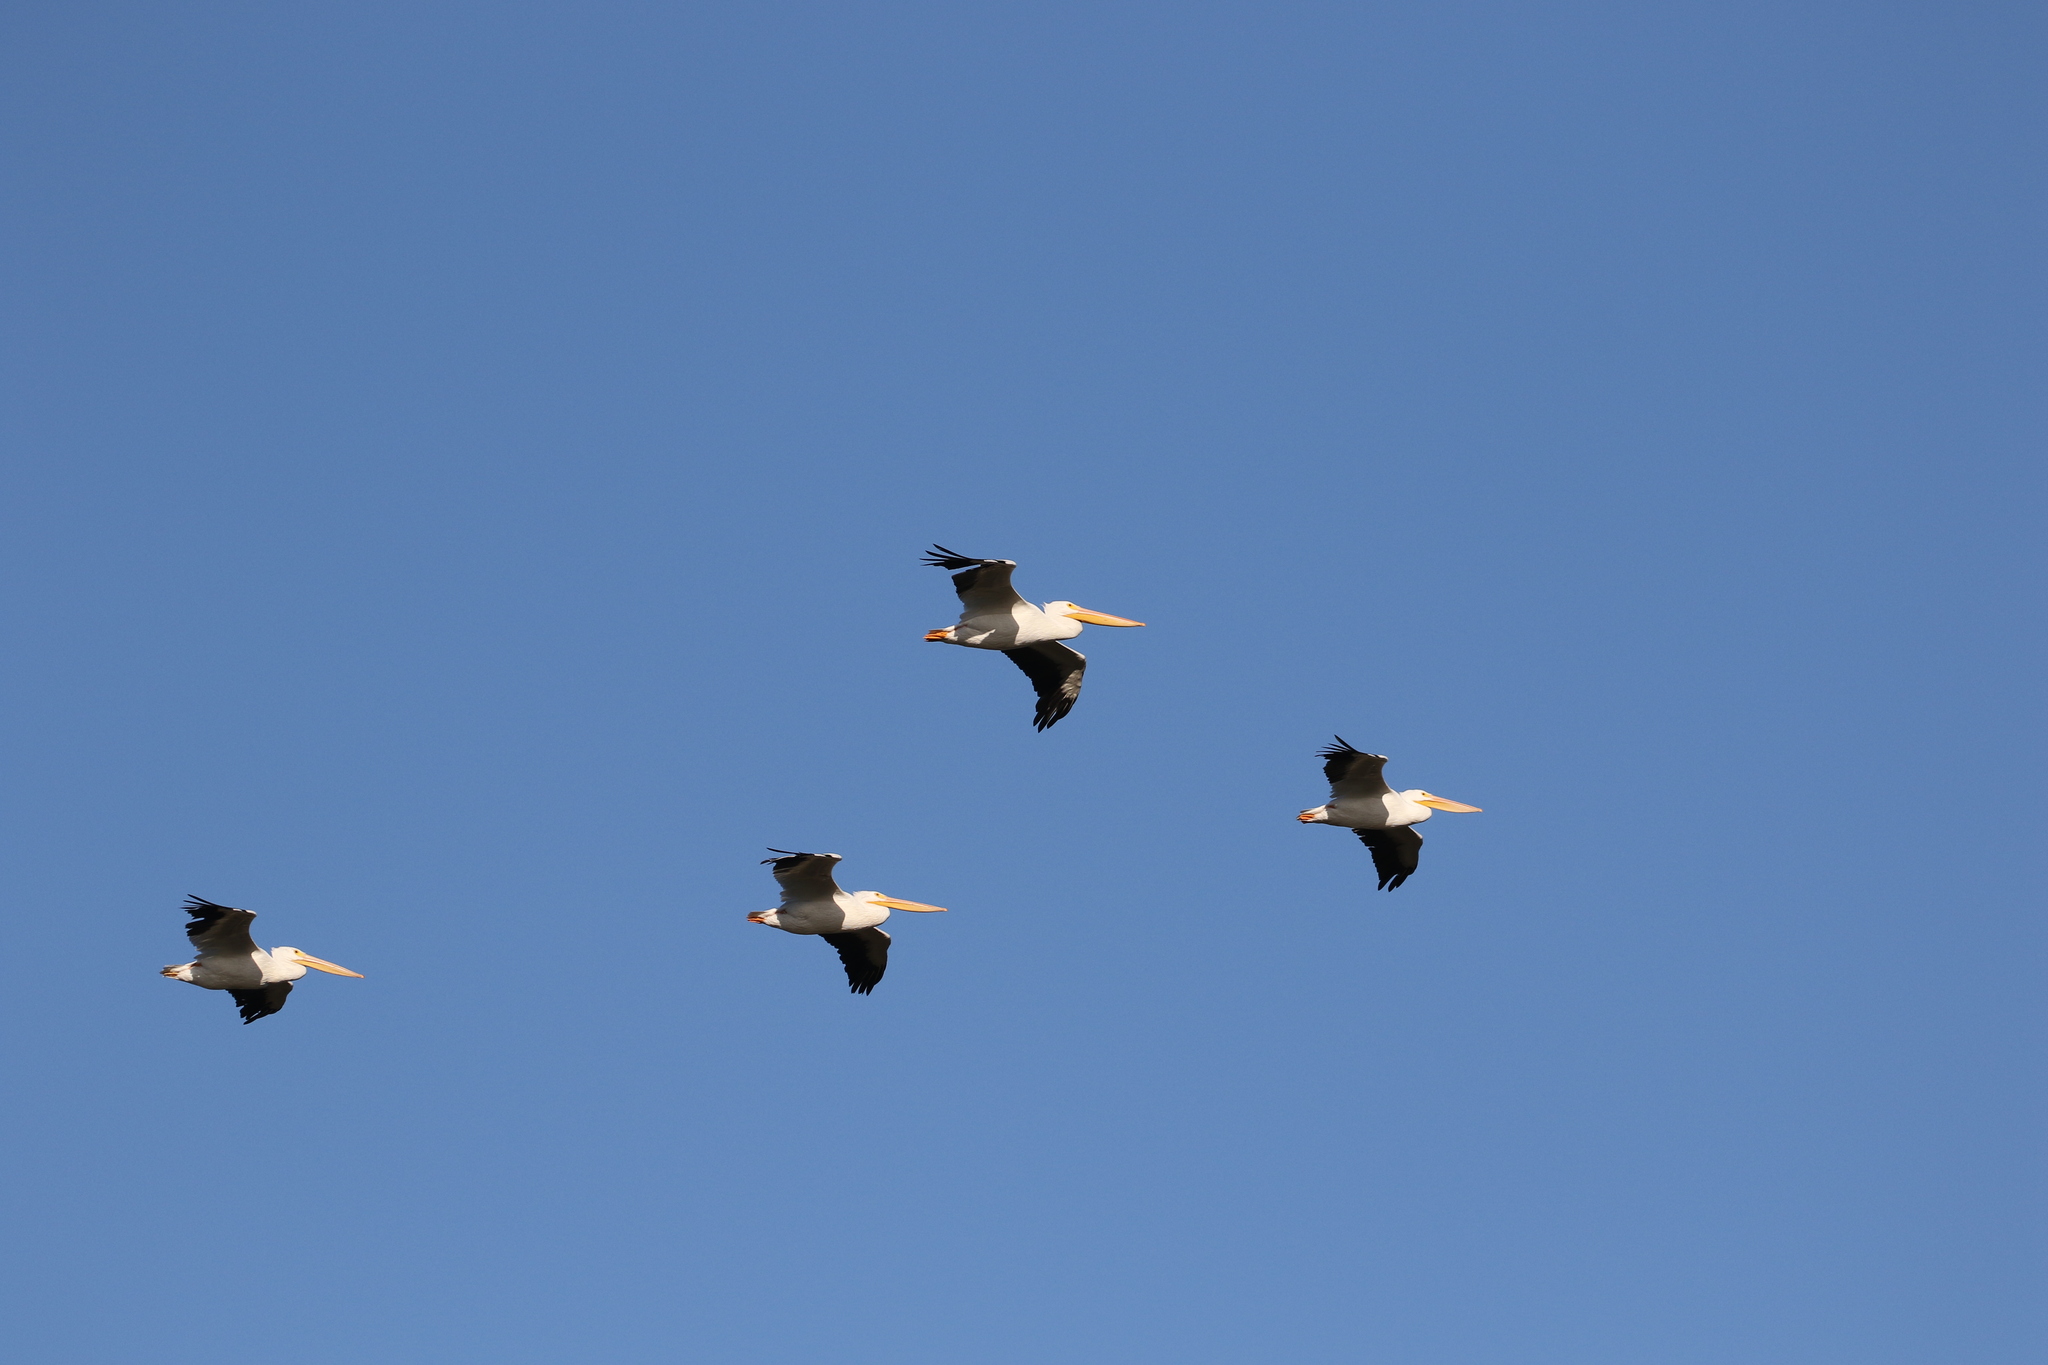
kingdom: Animalia
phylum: Chordata
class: Aves
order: Pelecaniformes
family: Pelecanidae
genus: Pelecanus
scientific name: Pelecanus erythrorhynchos
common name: American white pelican
